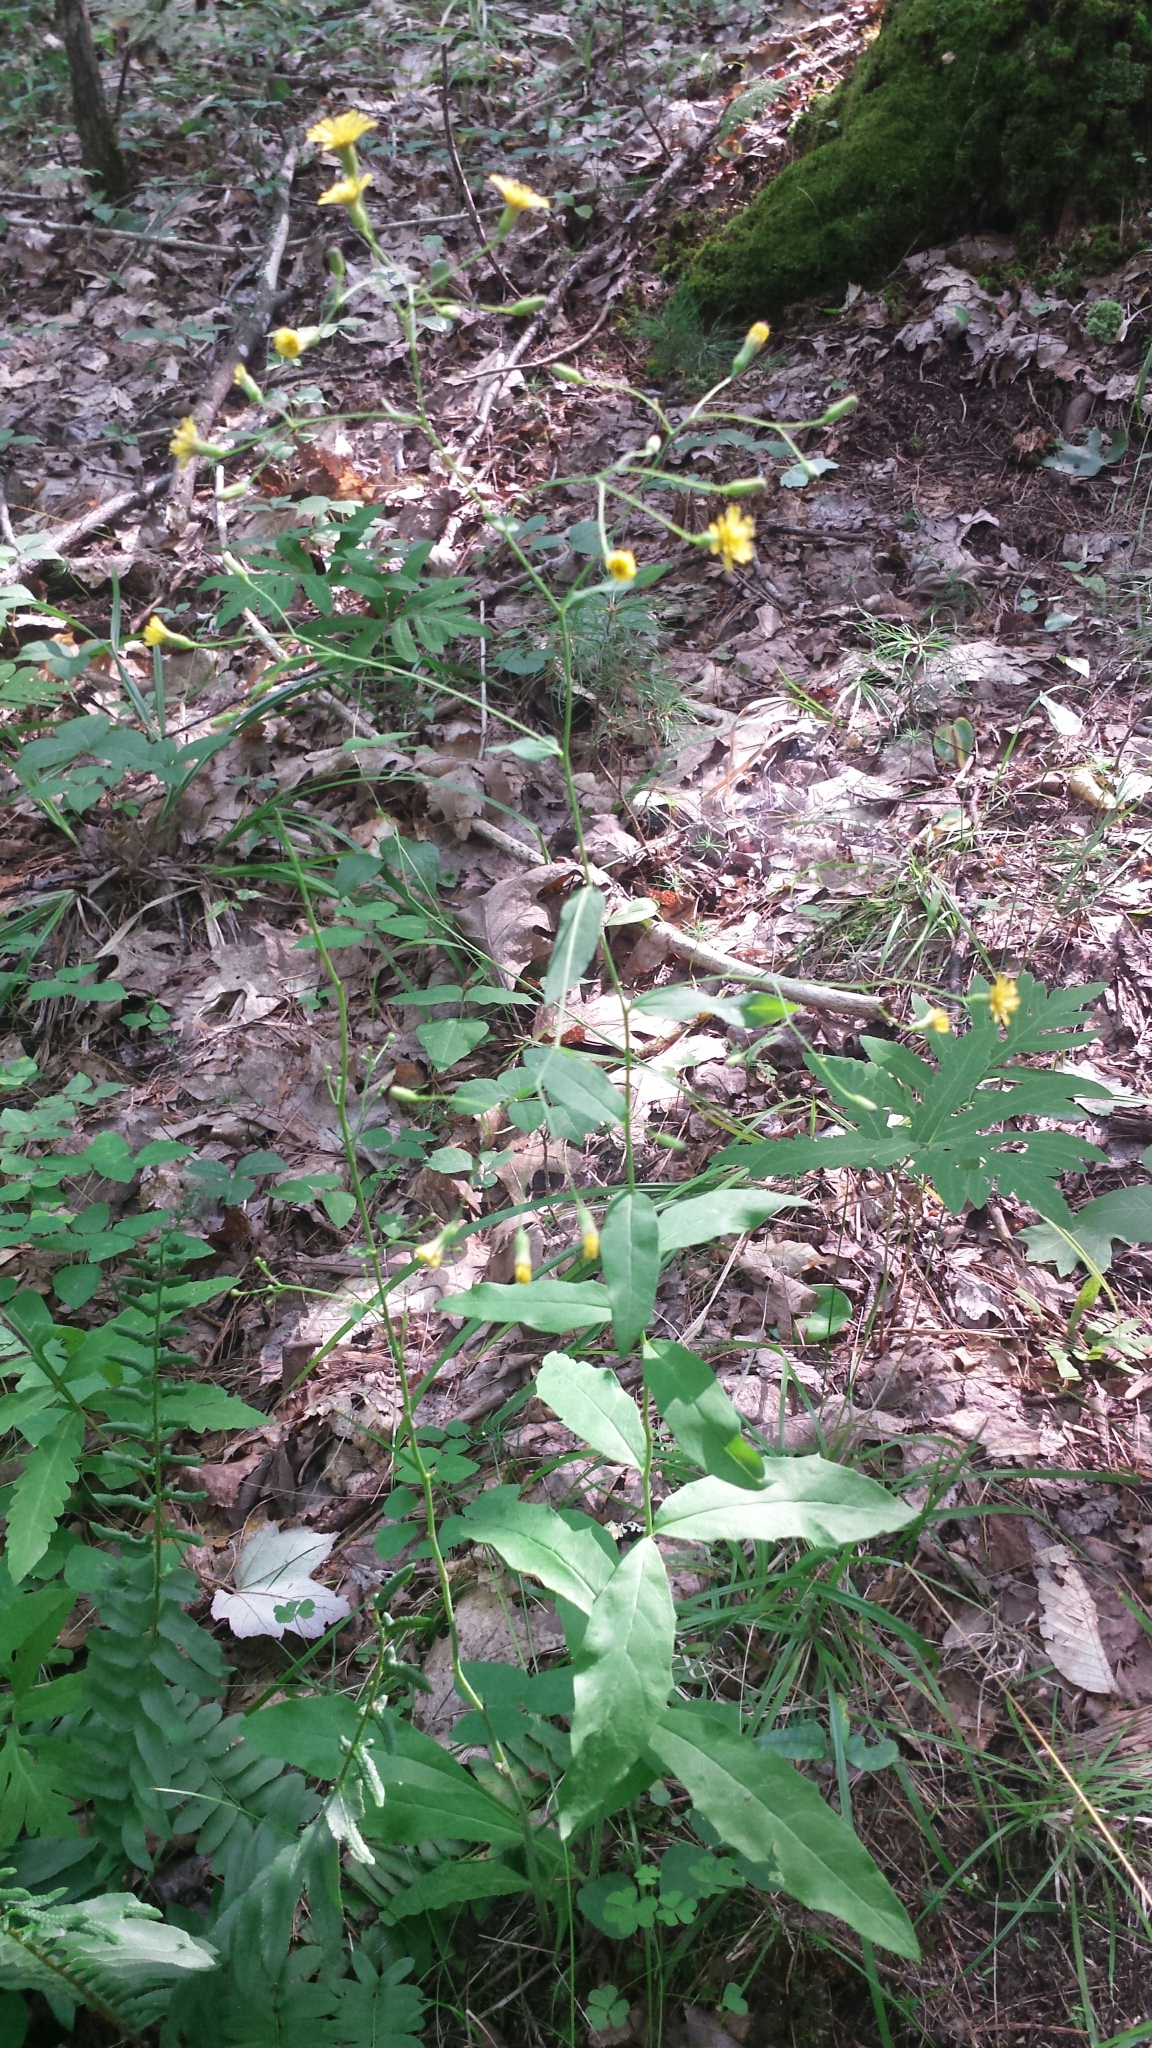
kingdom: Plantae
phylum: Tracheophyta
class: Magnoliopsida
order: Asterales
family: Asteraceae
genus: Hieracium
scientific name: Hieracium paniculatum
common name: Allegheny hawkweed
